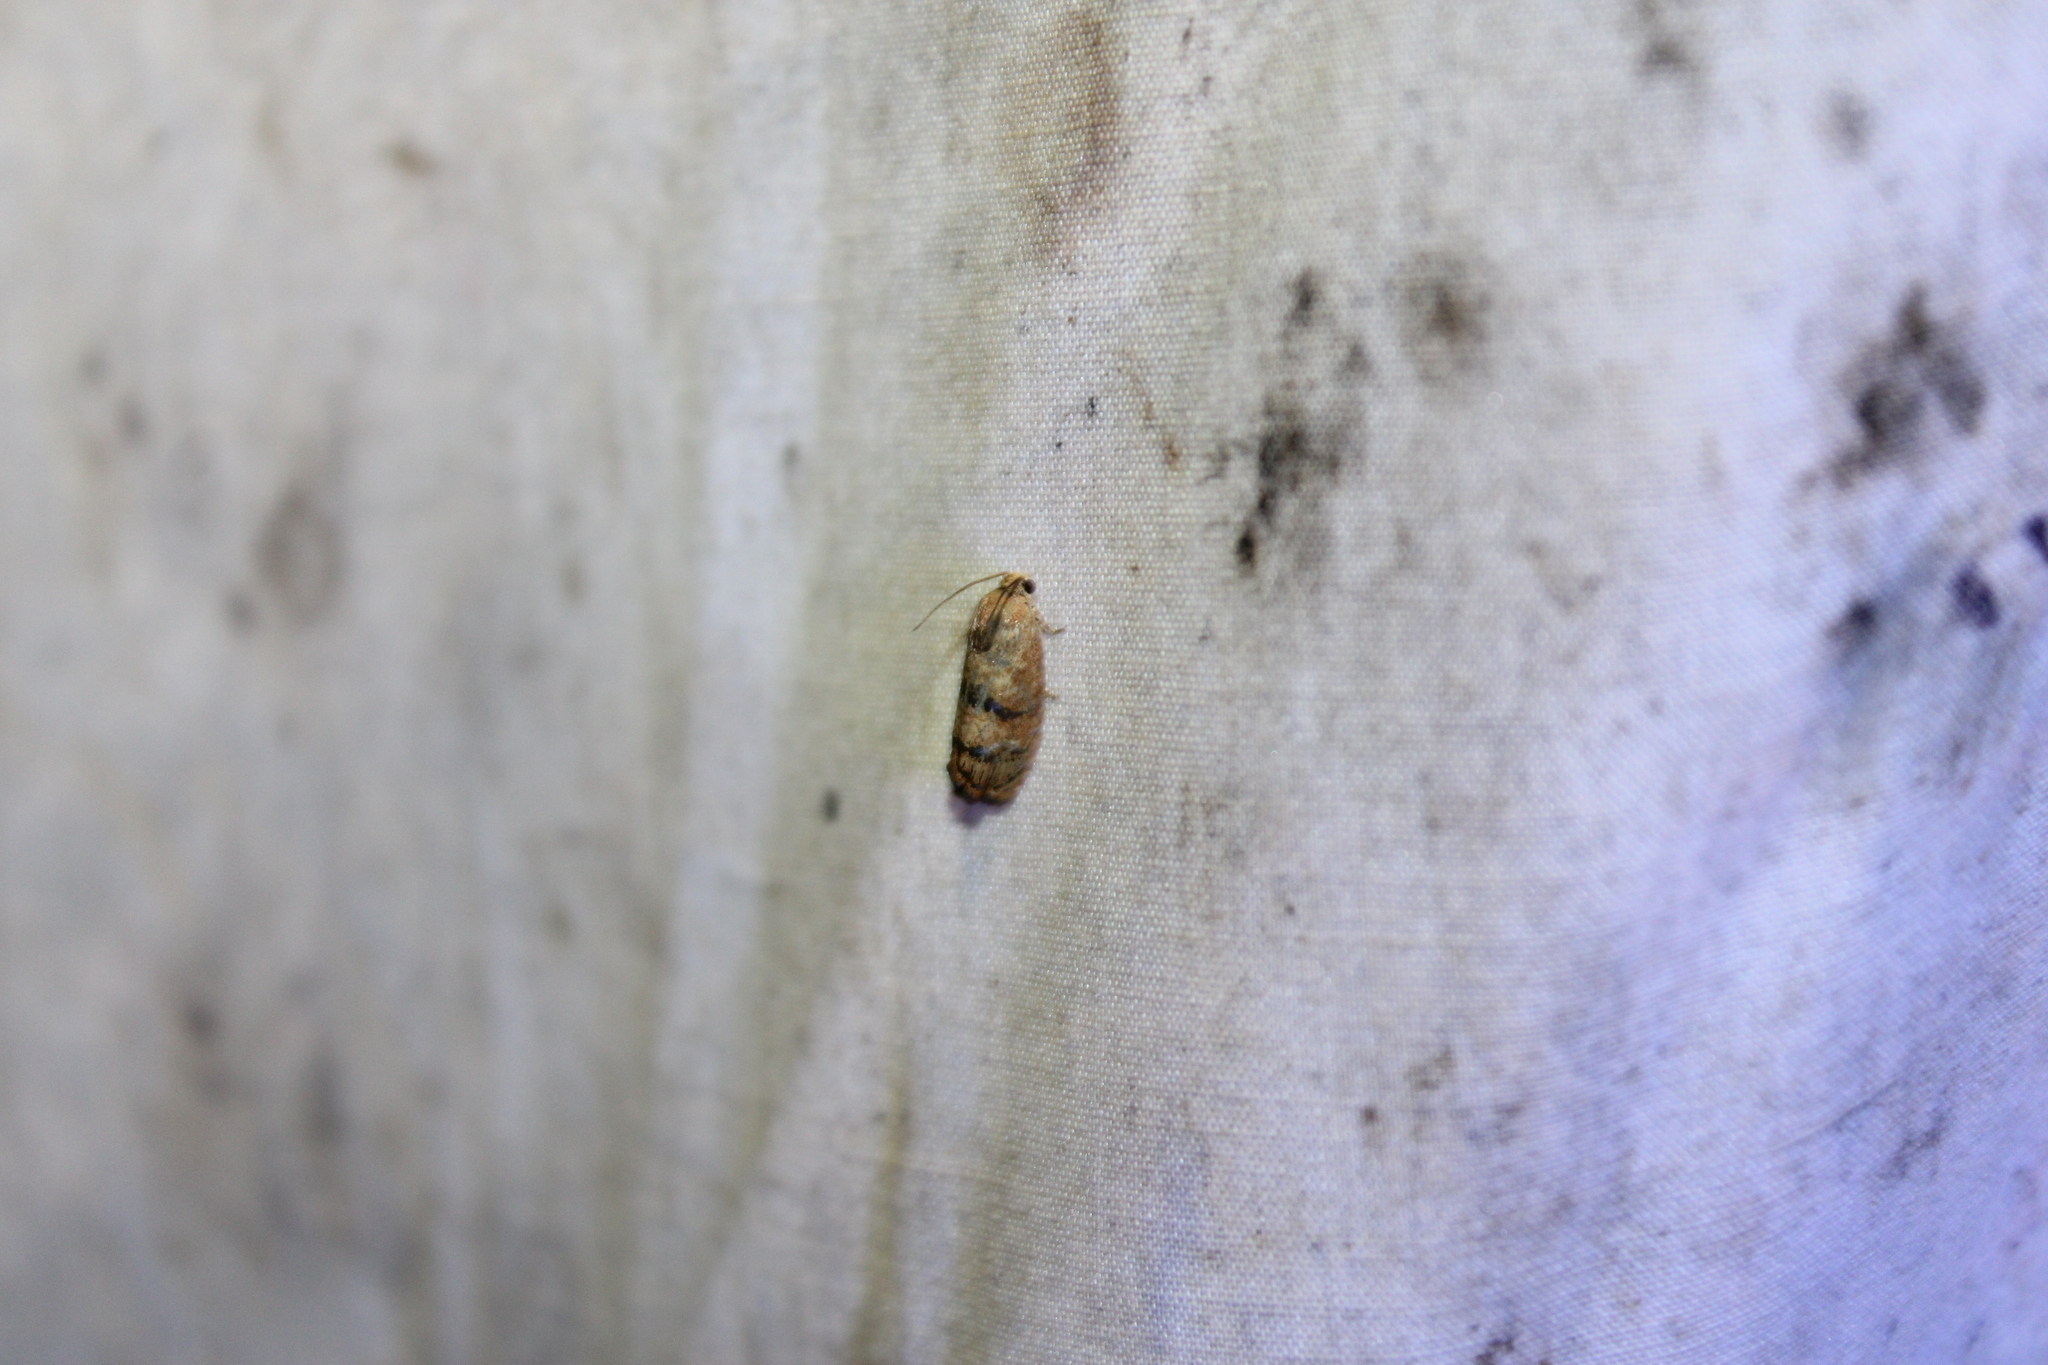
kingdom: Animalia
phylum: Arthropoda
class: Insecta
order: Lepidoptera
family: Tortricidae
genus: Cydia
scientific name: Cydia latiferreana
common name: Filbertworm moth
